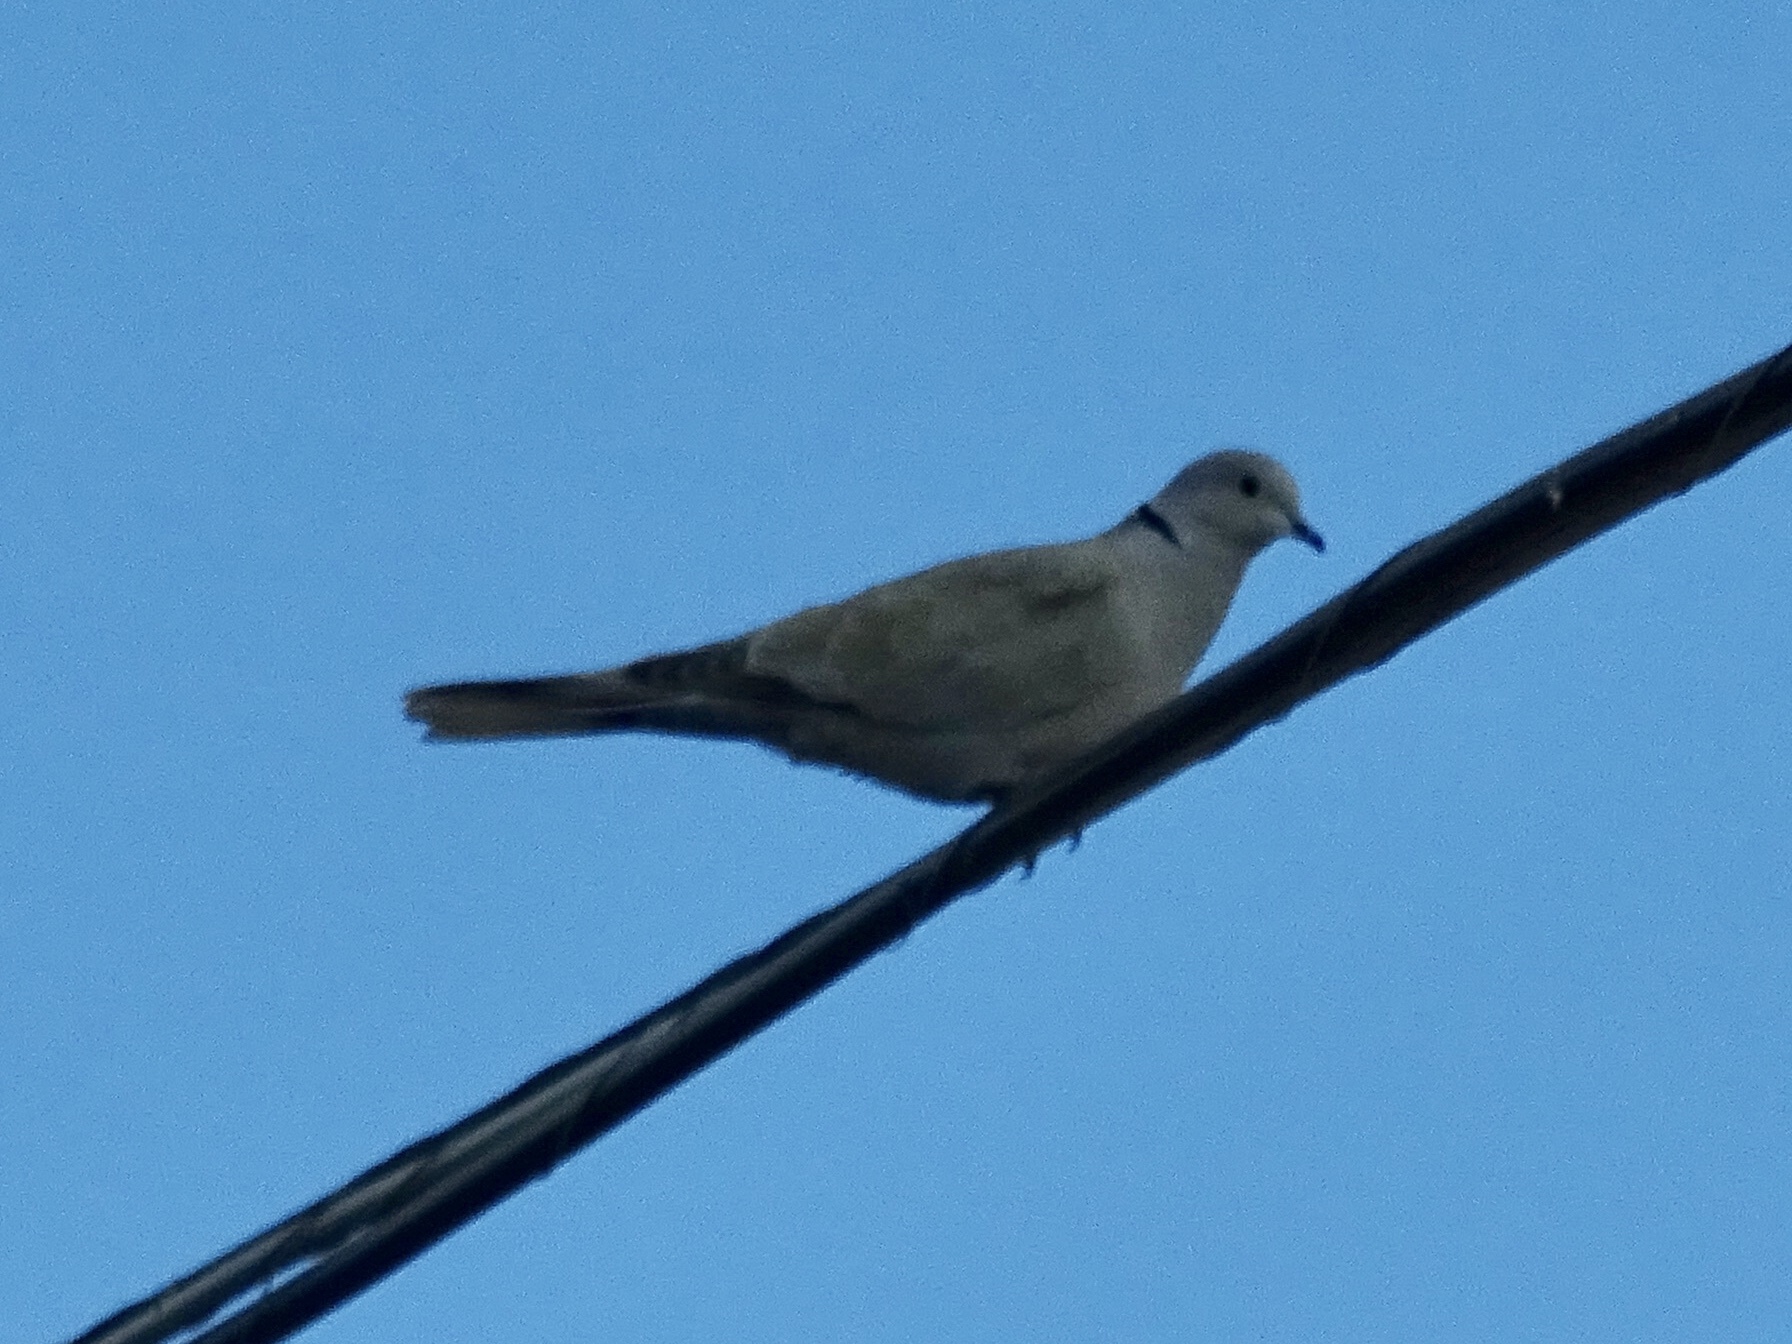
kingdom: Animalia
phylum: Chordata
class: Aves
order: Columbiformes
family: Columbidae
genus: Streptopelia
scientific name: Streptopelia decaocto
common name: Eurasian collared dove
